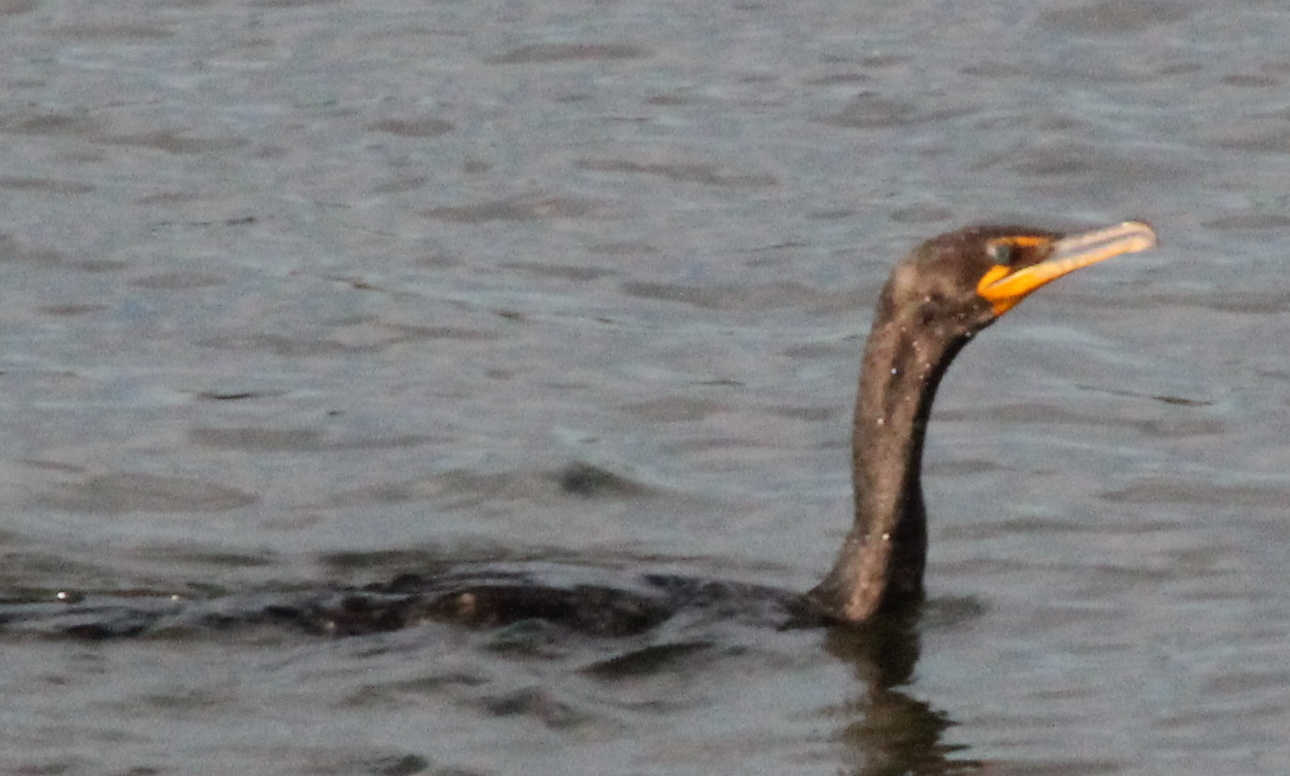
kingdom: Animalia
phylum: Chordata
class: Aves
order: Suliformes
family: Phalacrocoracidae
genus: Phalacrocorax
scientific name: Phalacrocorax auritus
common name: Double-crested cormorant
